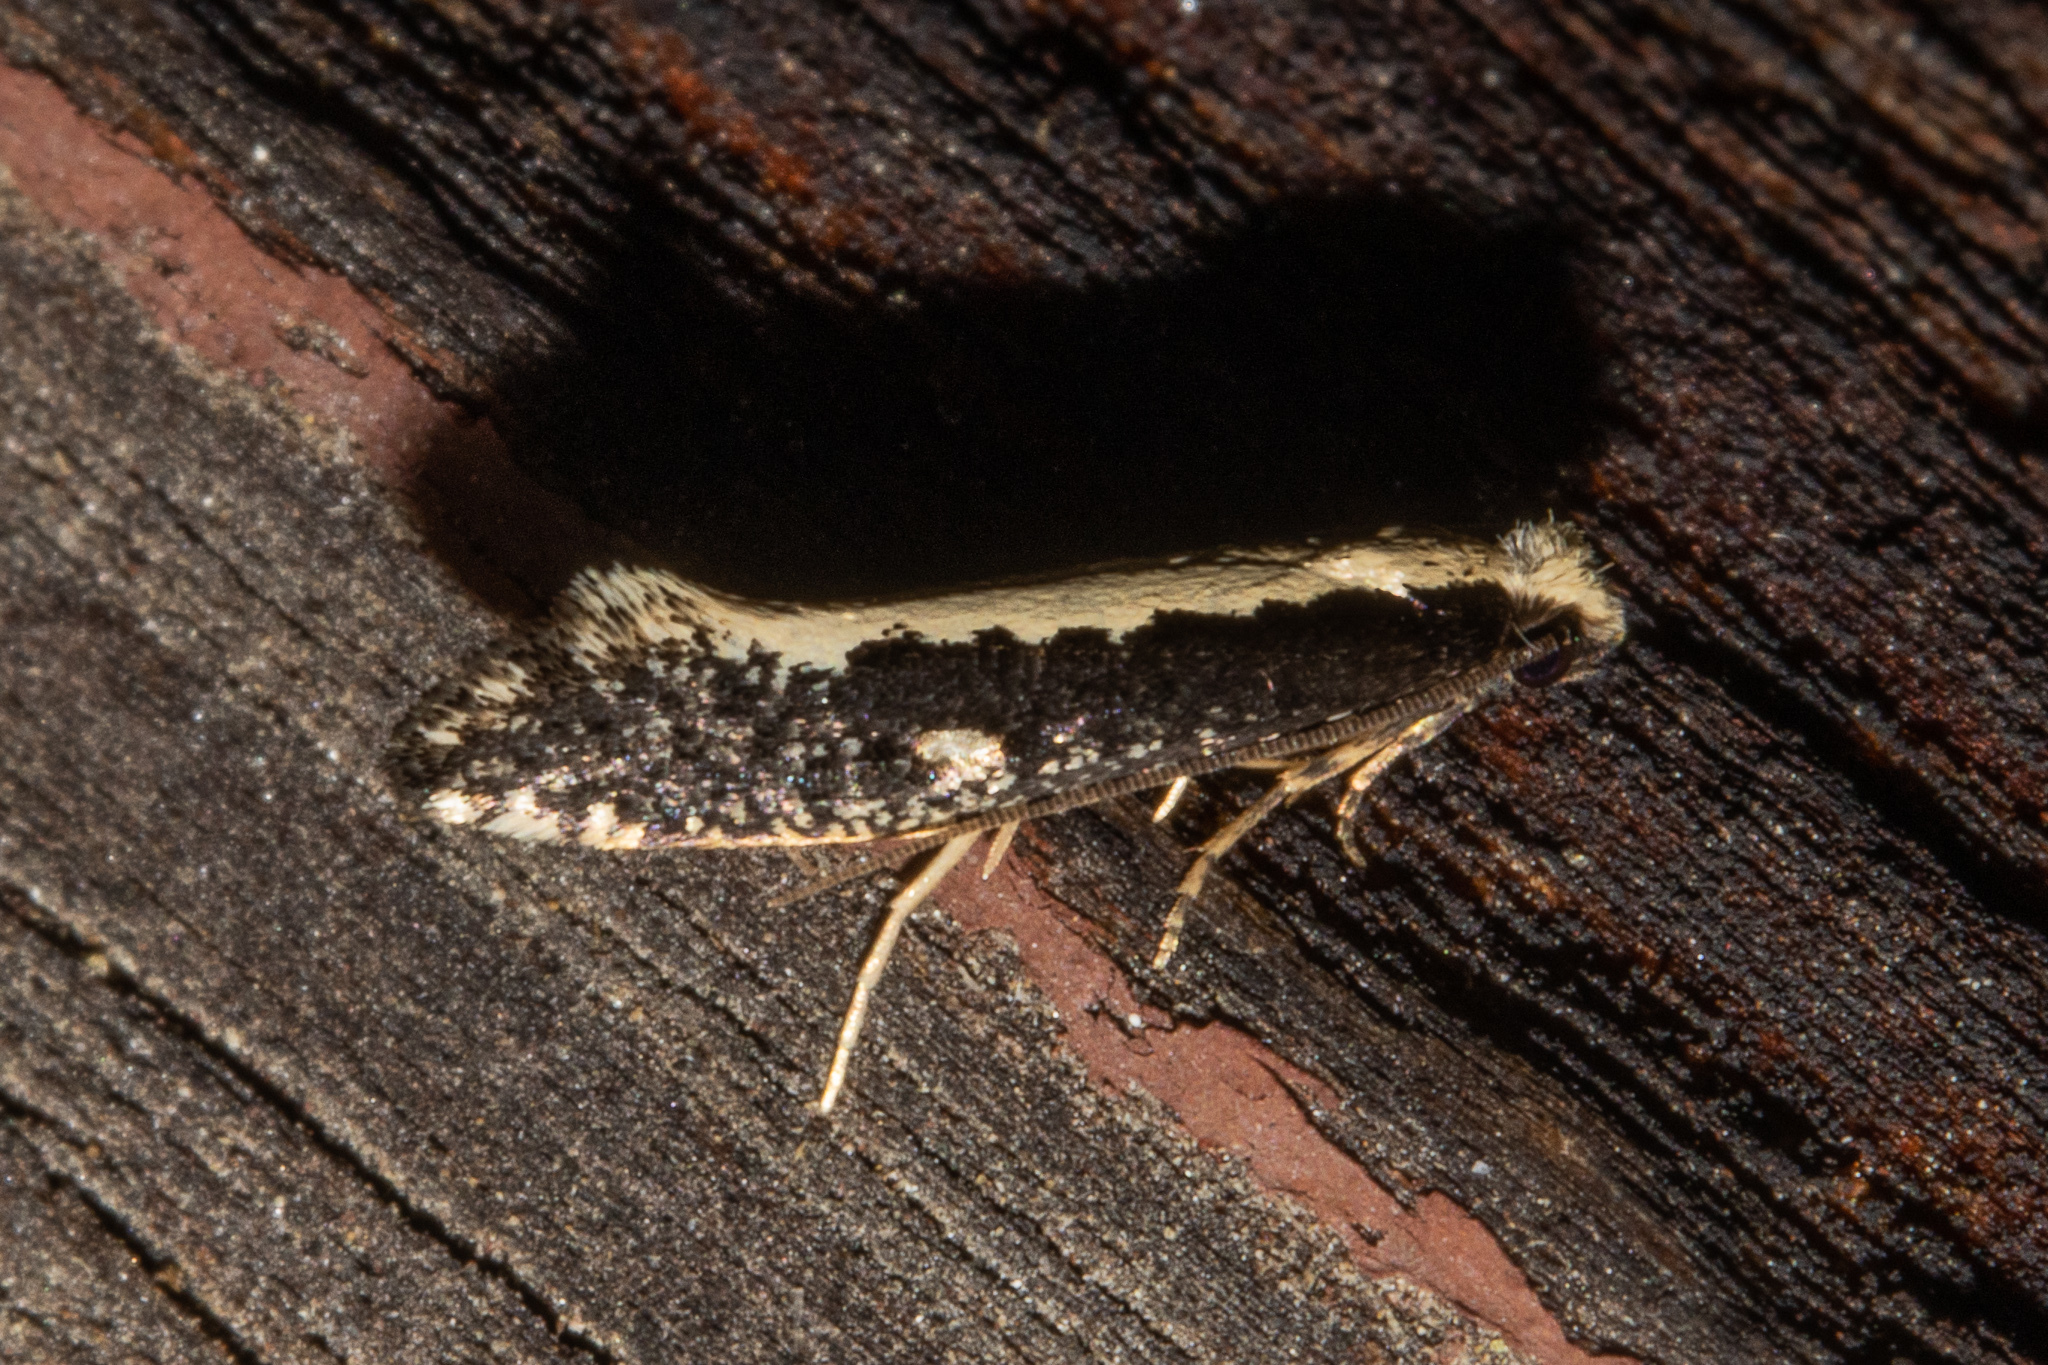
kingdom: Animalia
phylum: Arthropoda
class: Insecta
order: Lepidoptera
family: Tineidae
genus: Monopis
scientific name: Monopis ethelella
